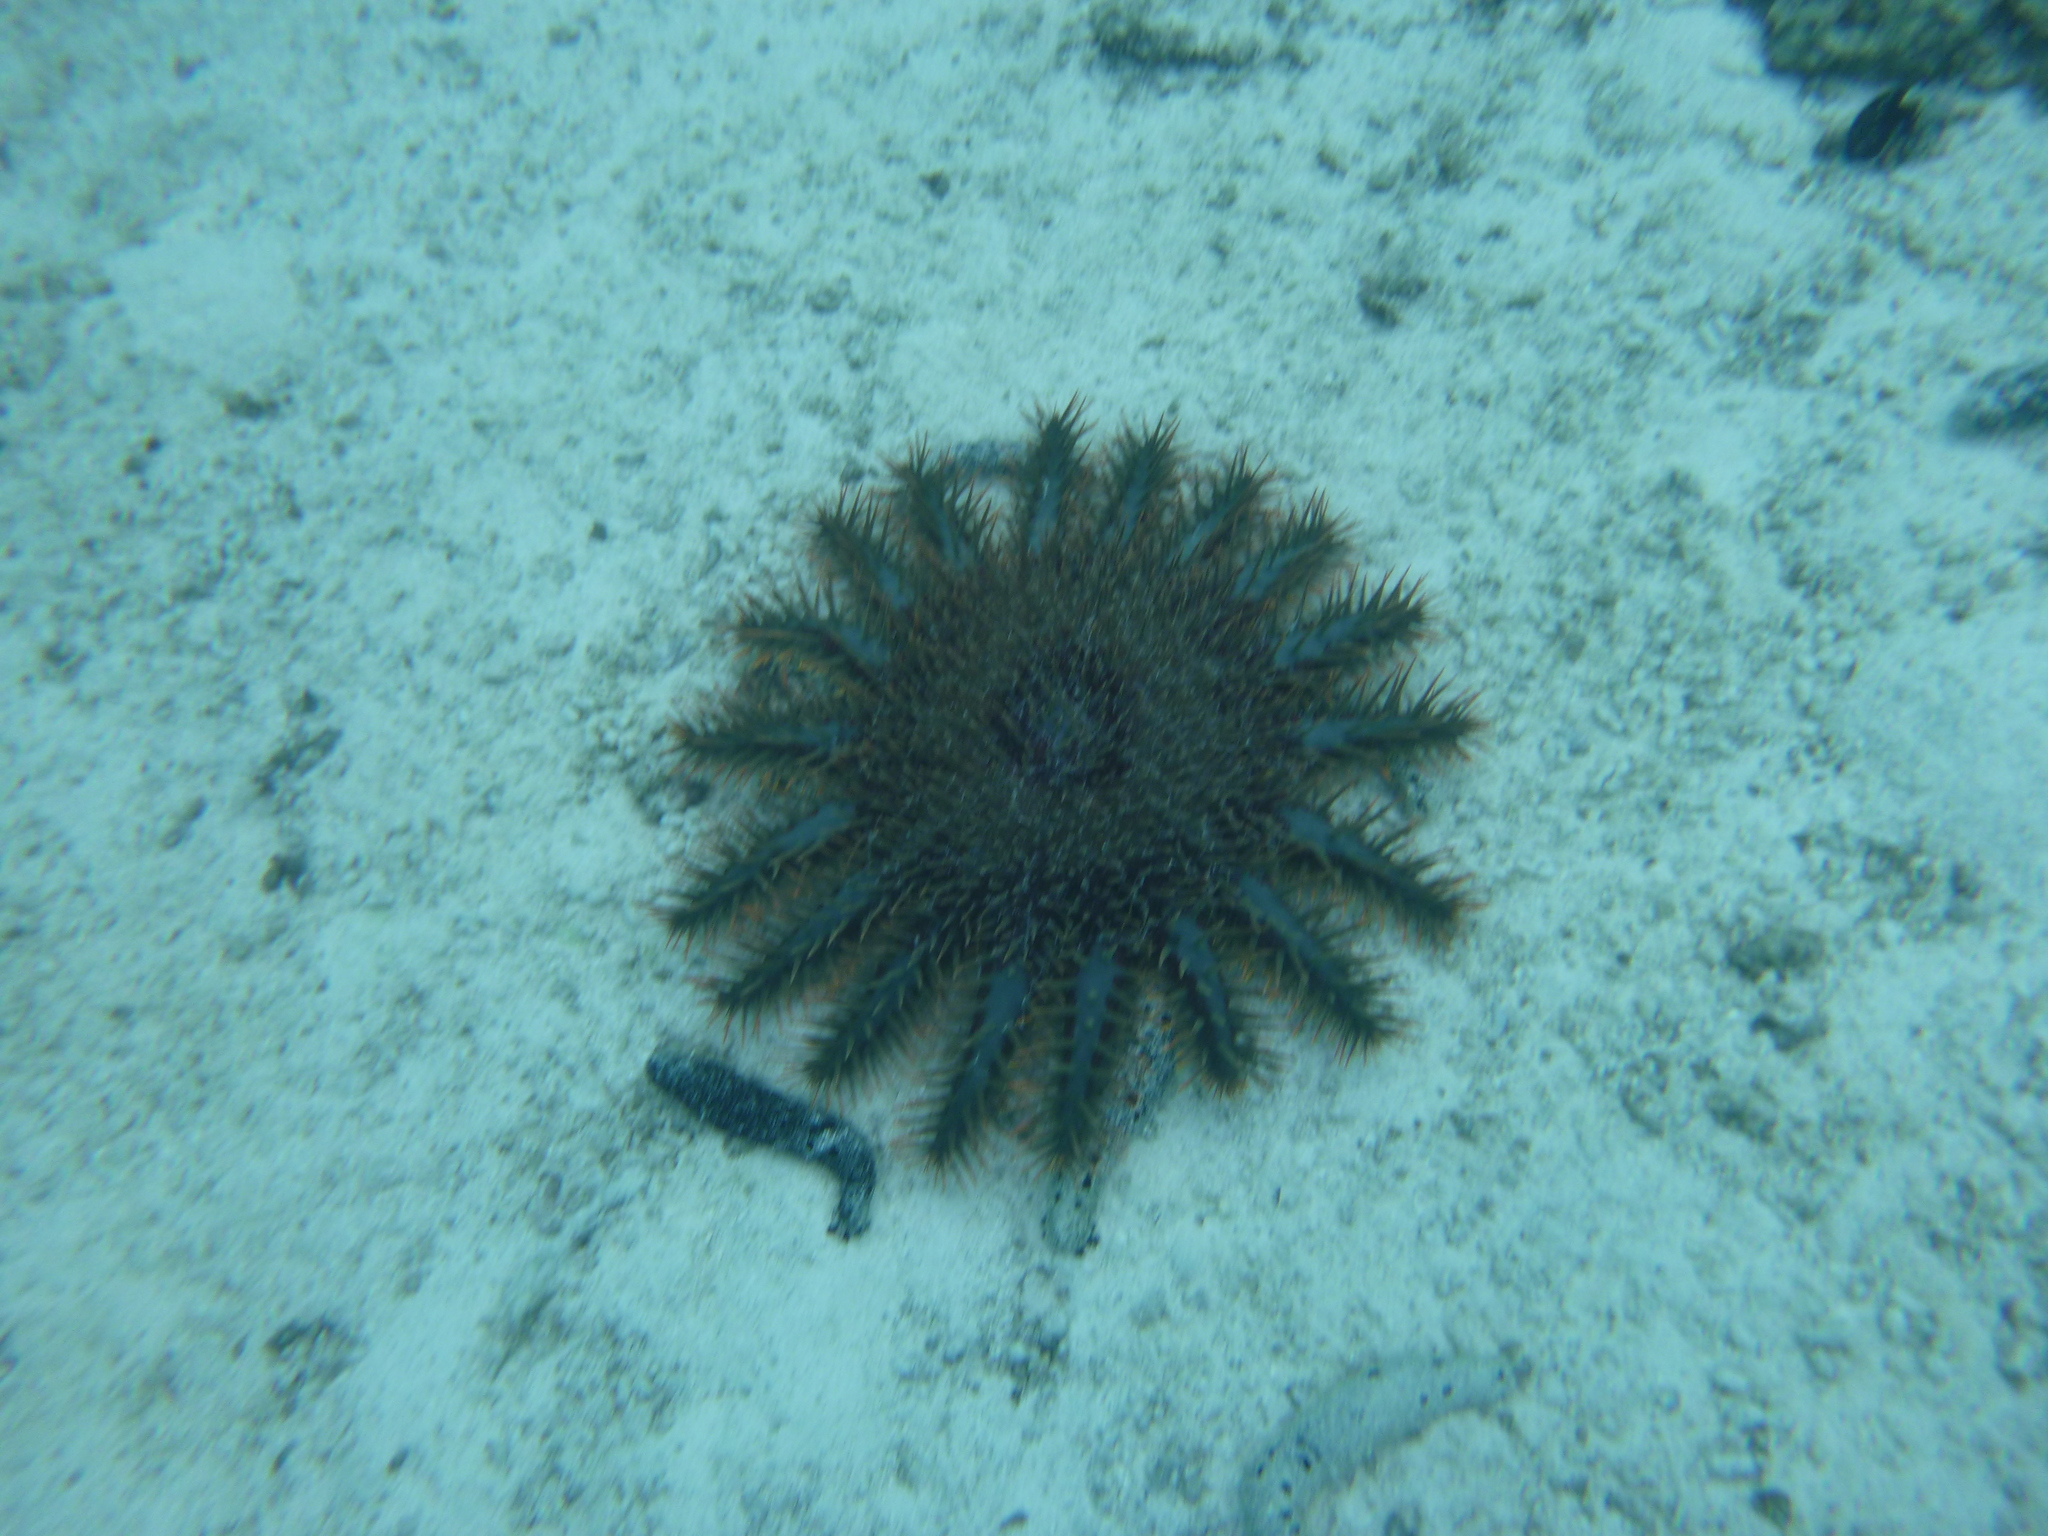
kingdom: Animalia
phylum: Echinodermata
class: Asteroidea
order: Valvatida
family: Acanthasteridae
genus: Acanthaster
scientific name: Acanthaster planci
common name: Crown-of-thorns
